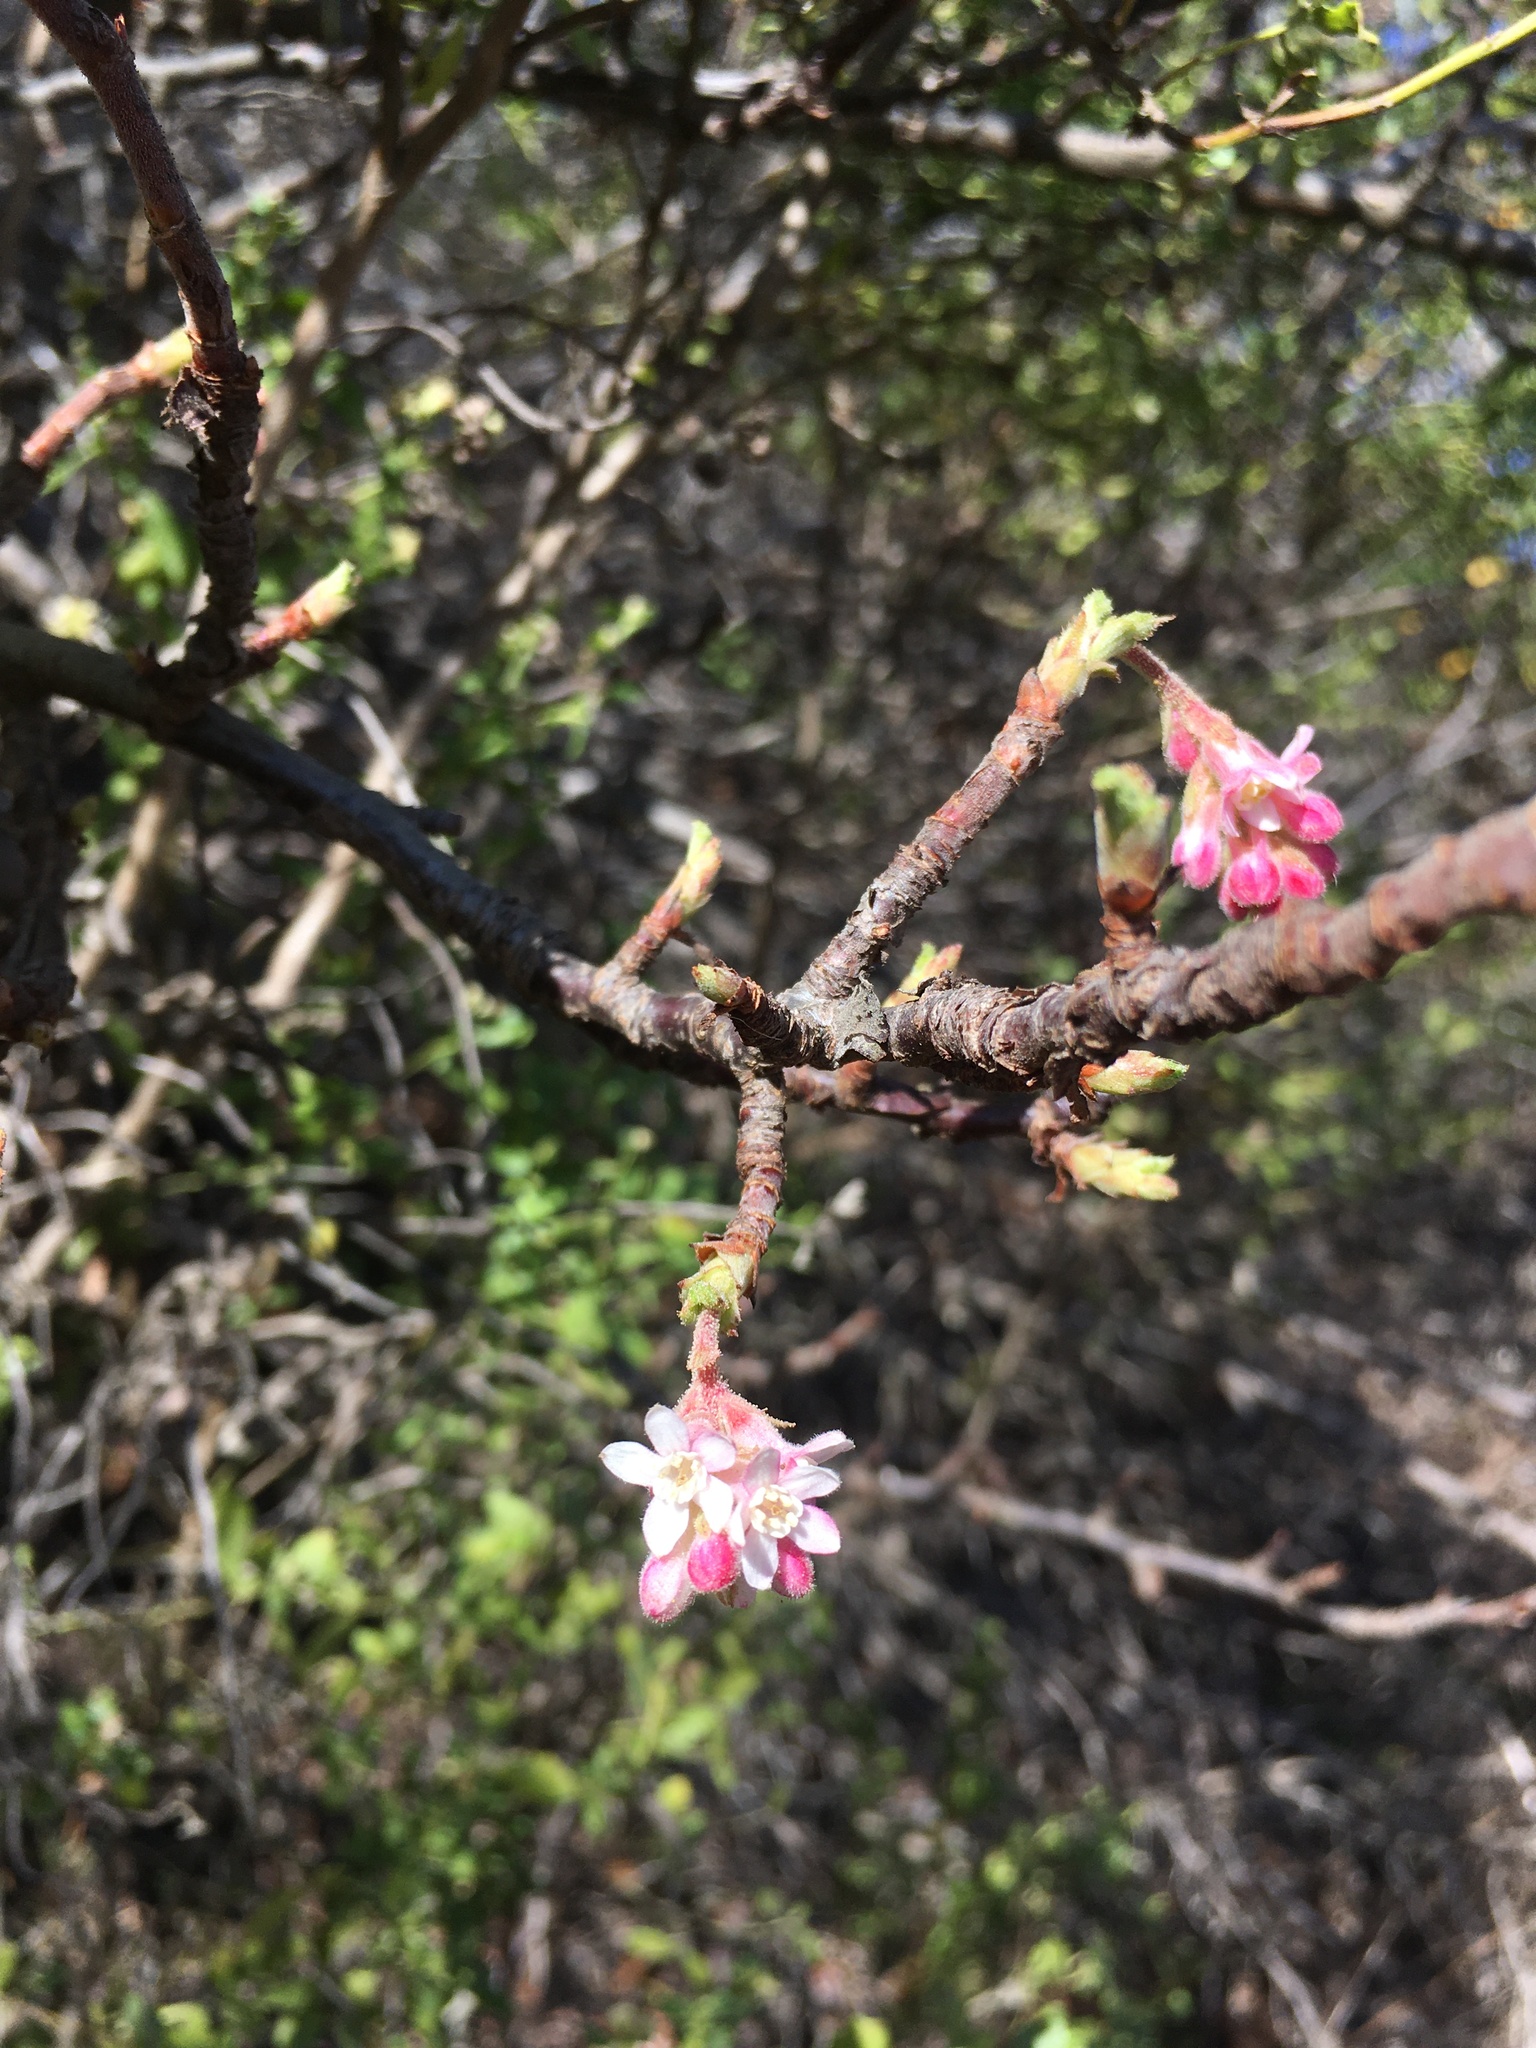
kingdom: Plantae
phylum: Tracheophyta
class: Magnoliopsida
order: Saxifragales
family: Grossulariaceae
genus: Ribes
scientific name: Ribes malvaceum
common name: Chaparral currant
